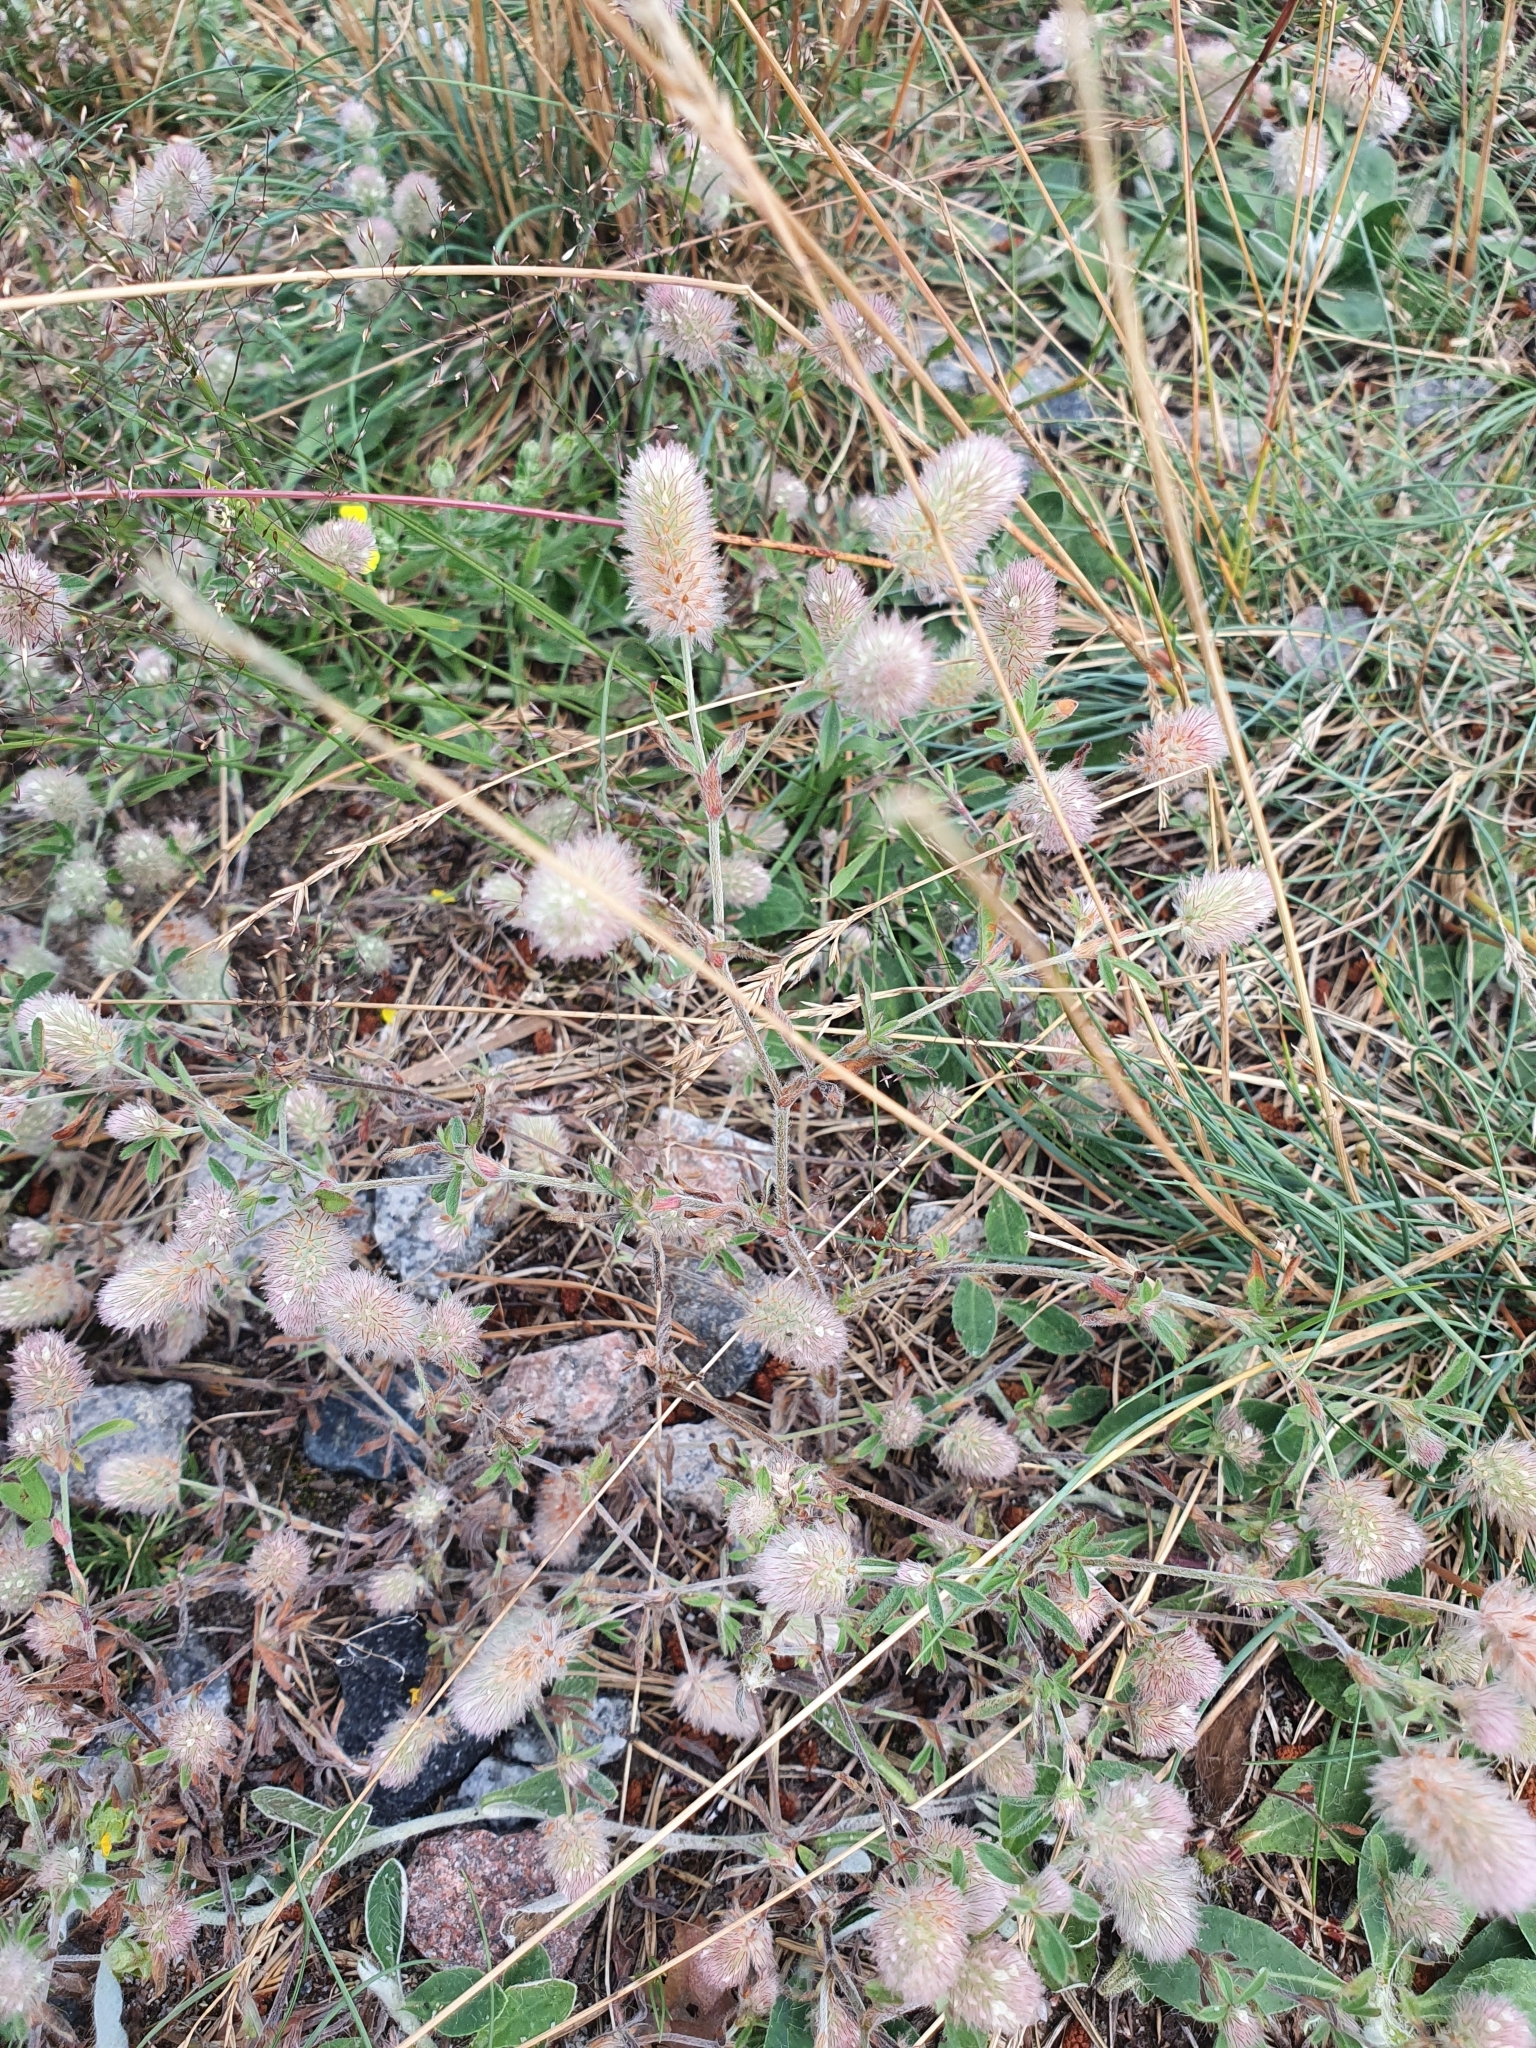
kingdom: Plantae
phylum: Tracheophyta
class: Magnoliopsida
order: Fabales
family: Fabaceae
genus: Trifolium
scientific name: Trifolium arvense
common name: Hare's-foot clover
